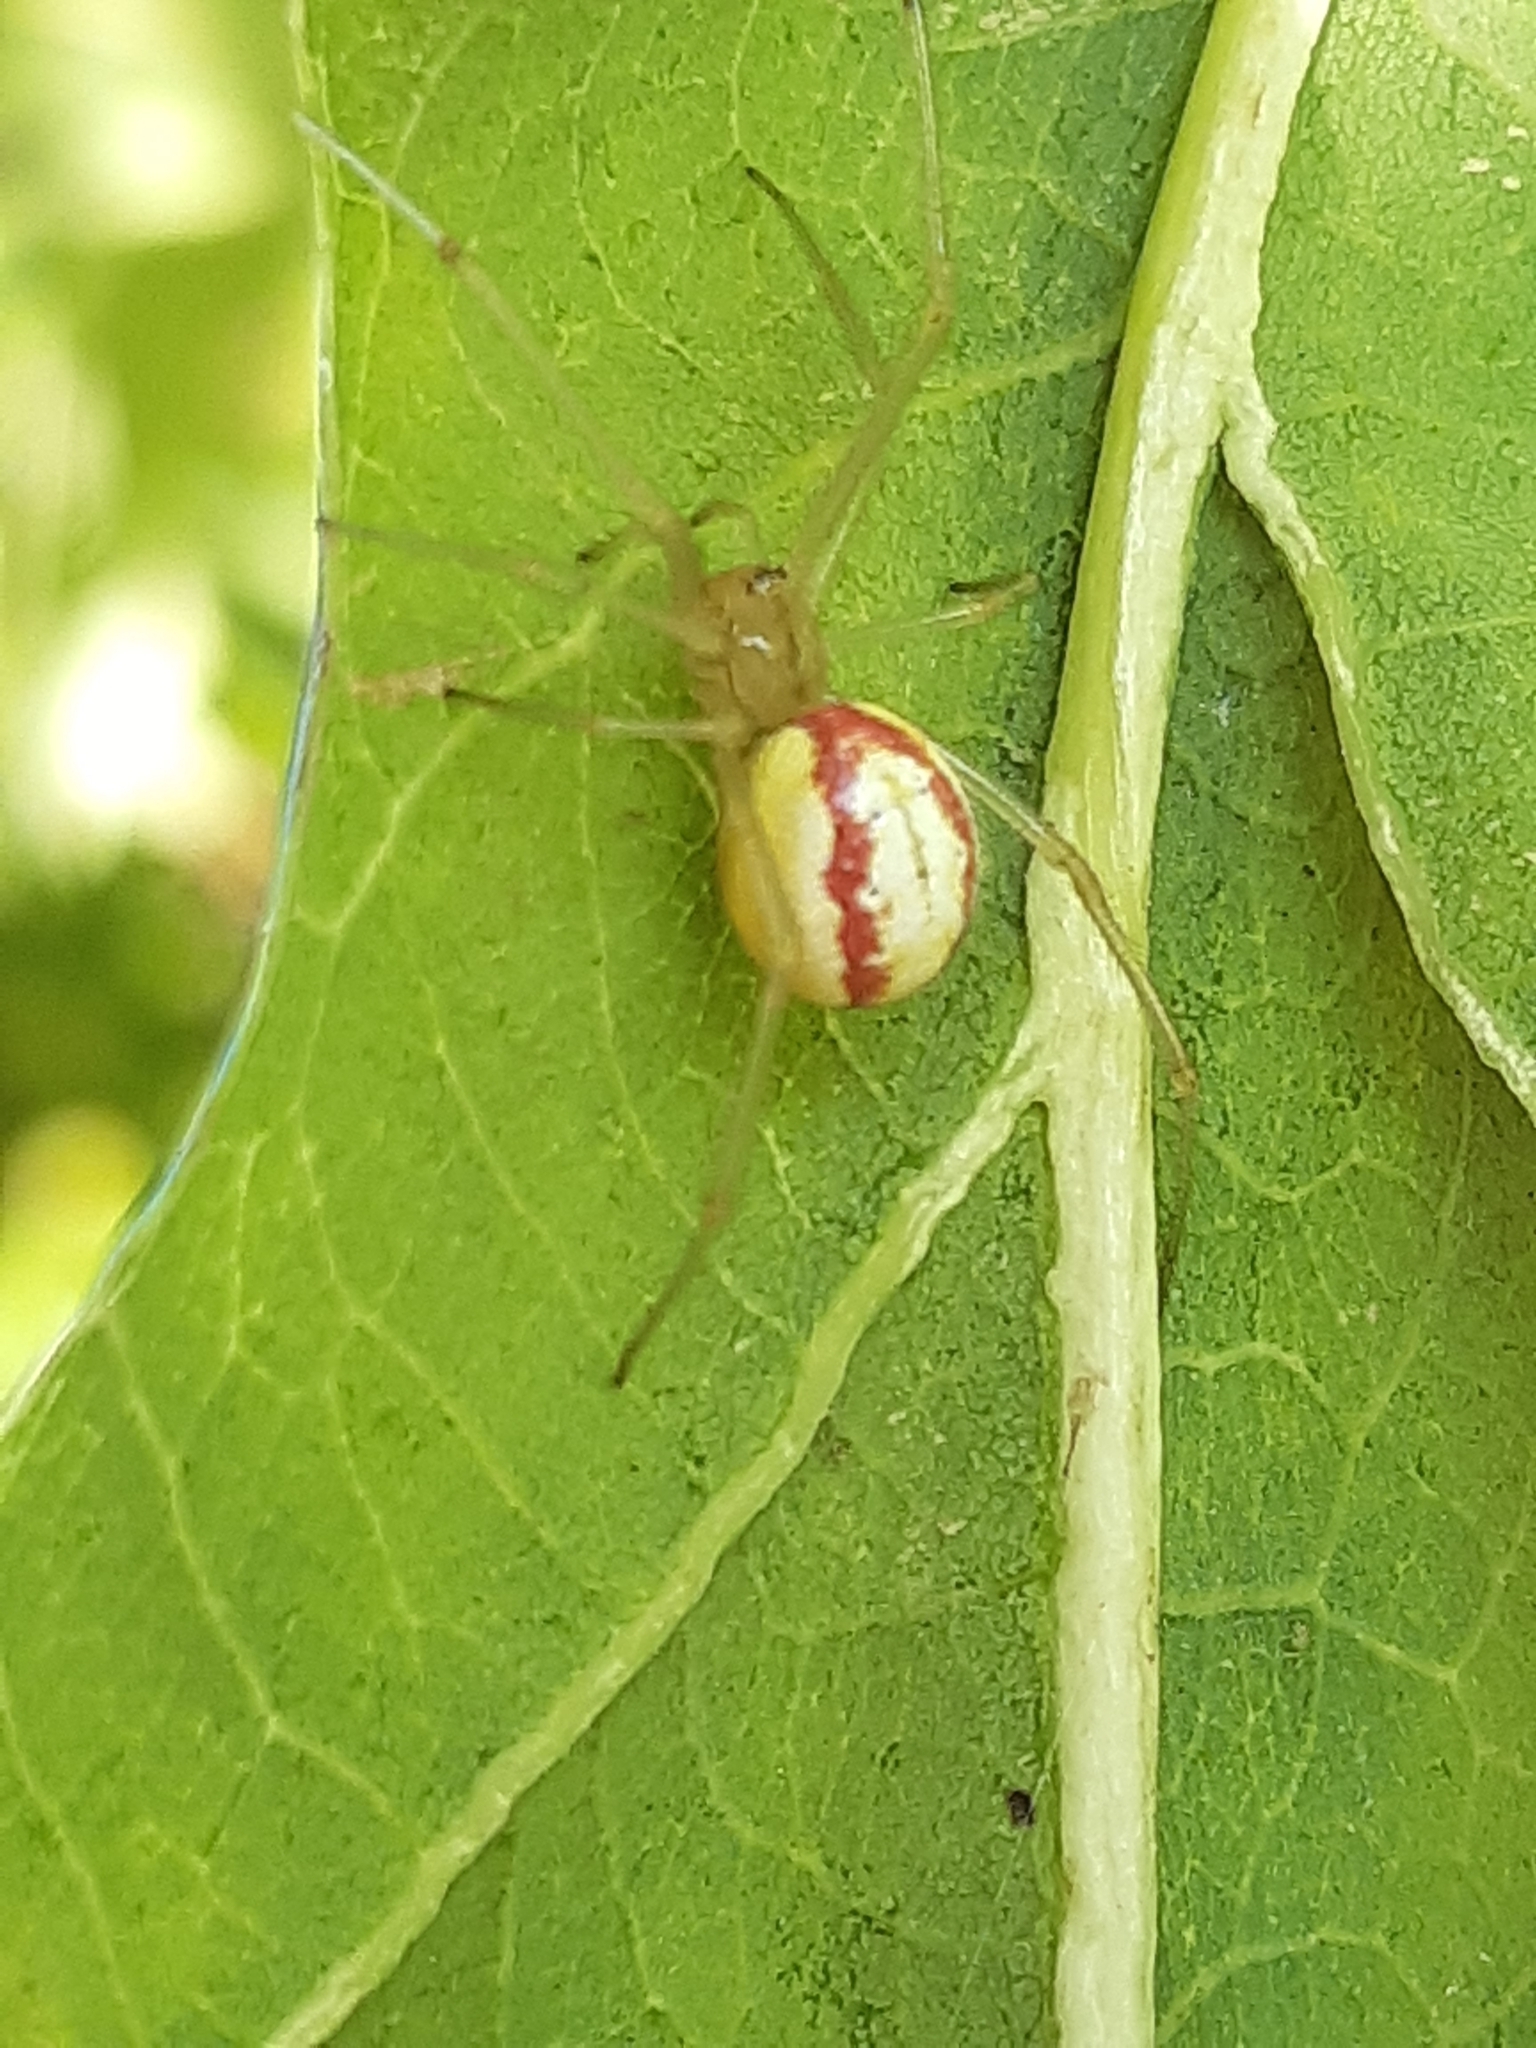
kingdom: Animalia
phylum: Arthropoda
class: Arachnida
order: Araneae
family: Theridiidae
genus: Enoplognatha
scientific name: Enoplognatha ovata
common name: Common candy-striped spider
